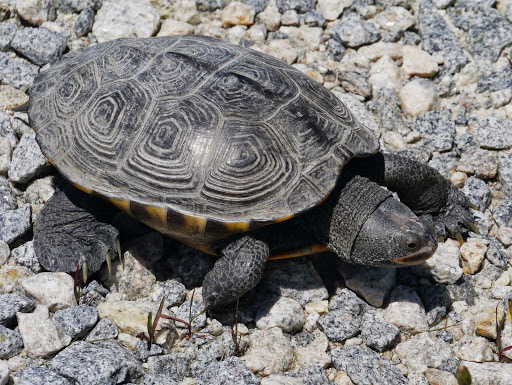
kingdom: Animalia
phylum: Chordata
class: Testudines
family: Emydidae
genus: Malaclemys
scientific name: Malaclemys terrapin
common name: Diamondback terrapin
